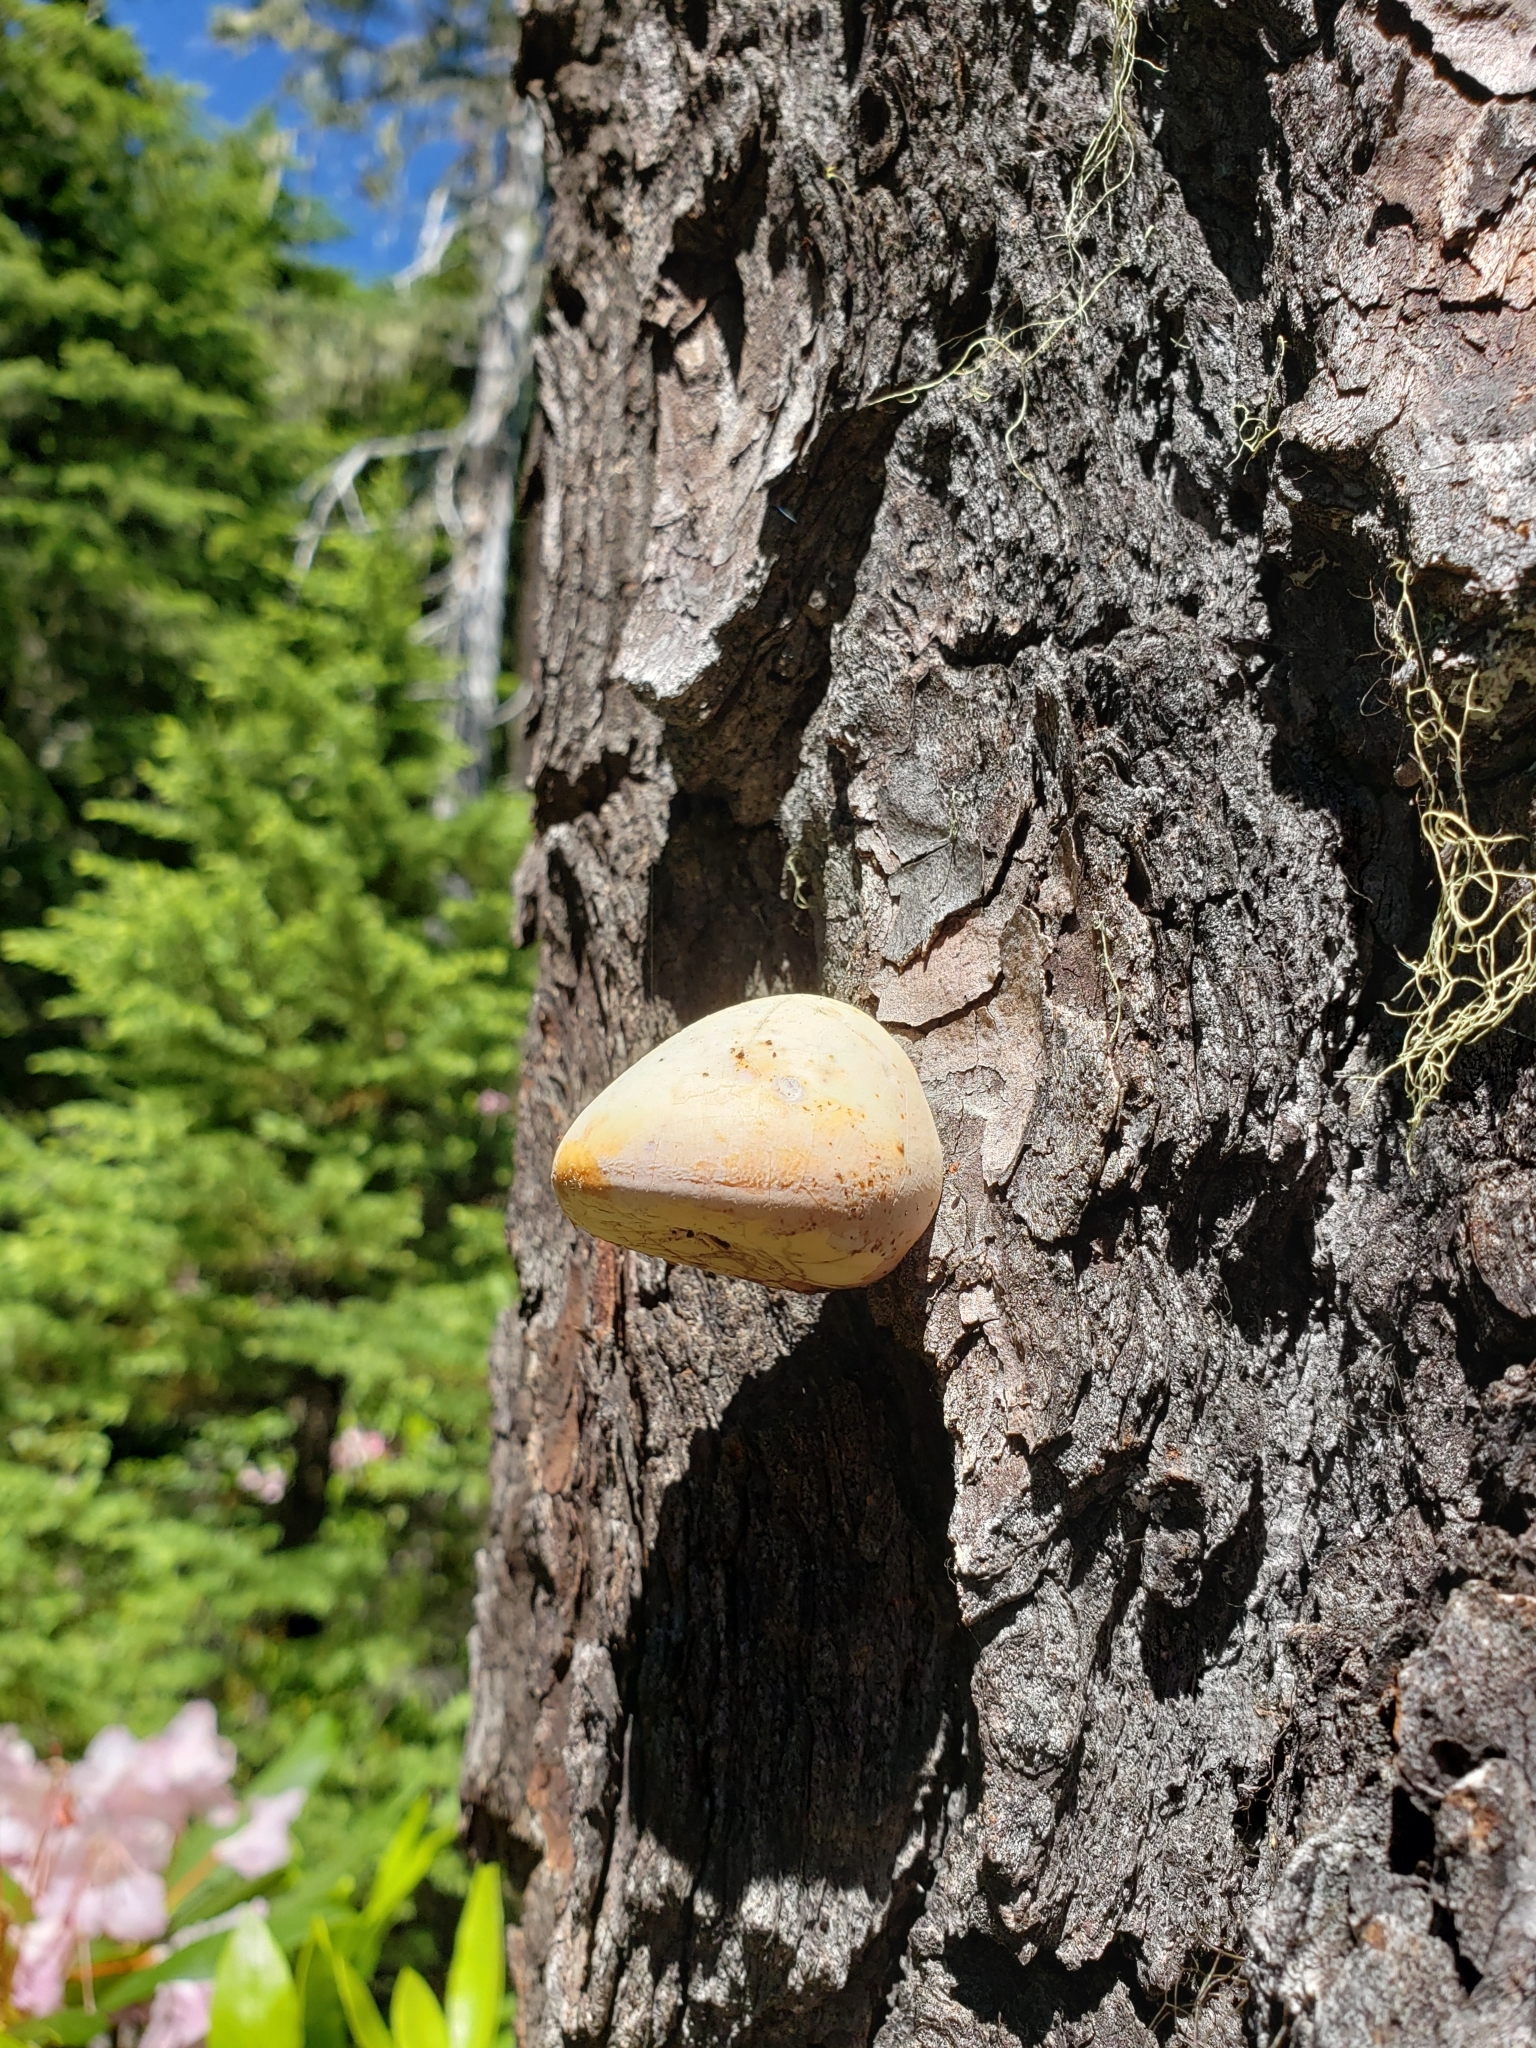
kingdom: Fungi
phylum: Basidiomycota
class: Agaricomycetes
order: Polyporales
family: Polyporaceae
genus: Cryptoporus
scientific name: Cryptoporus volvatus
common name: Veiled polypore
